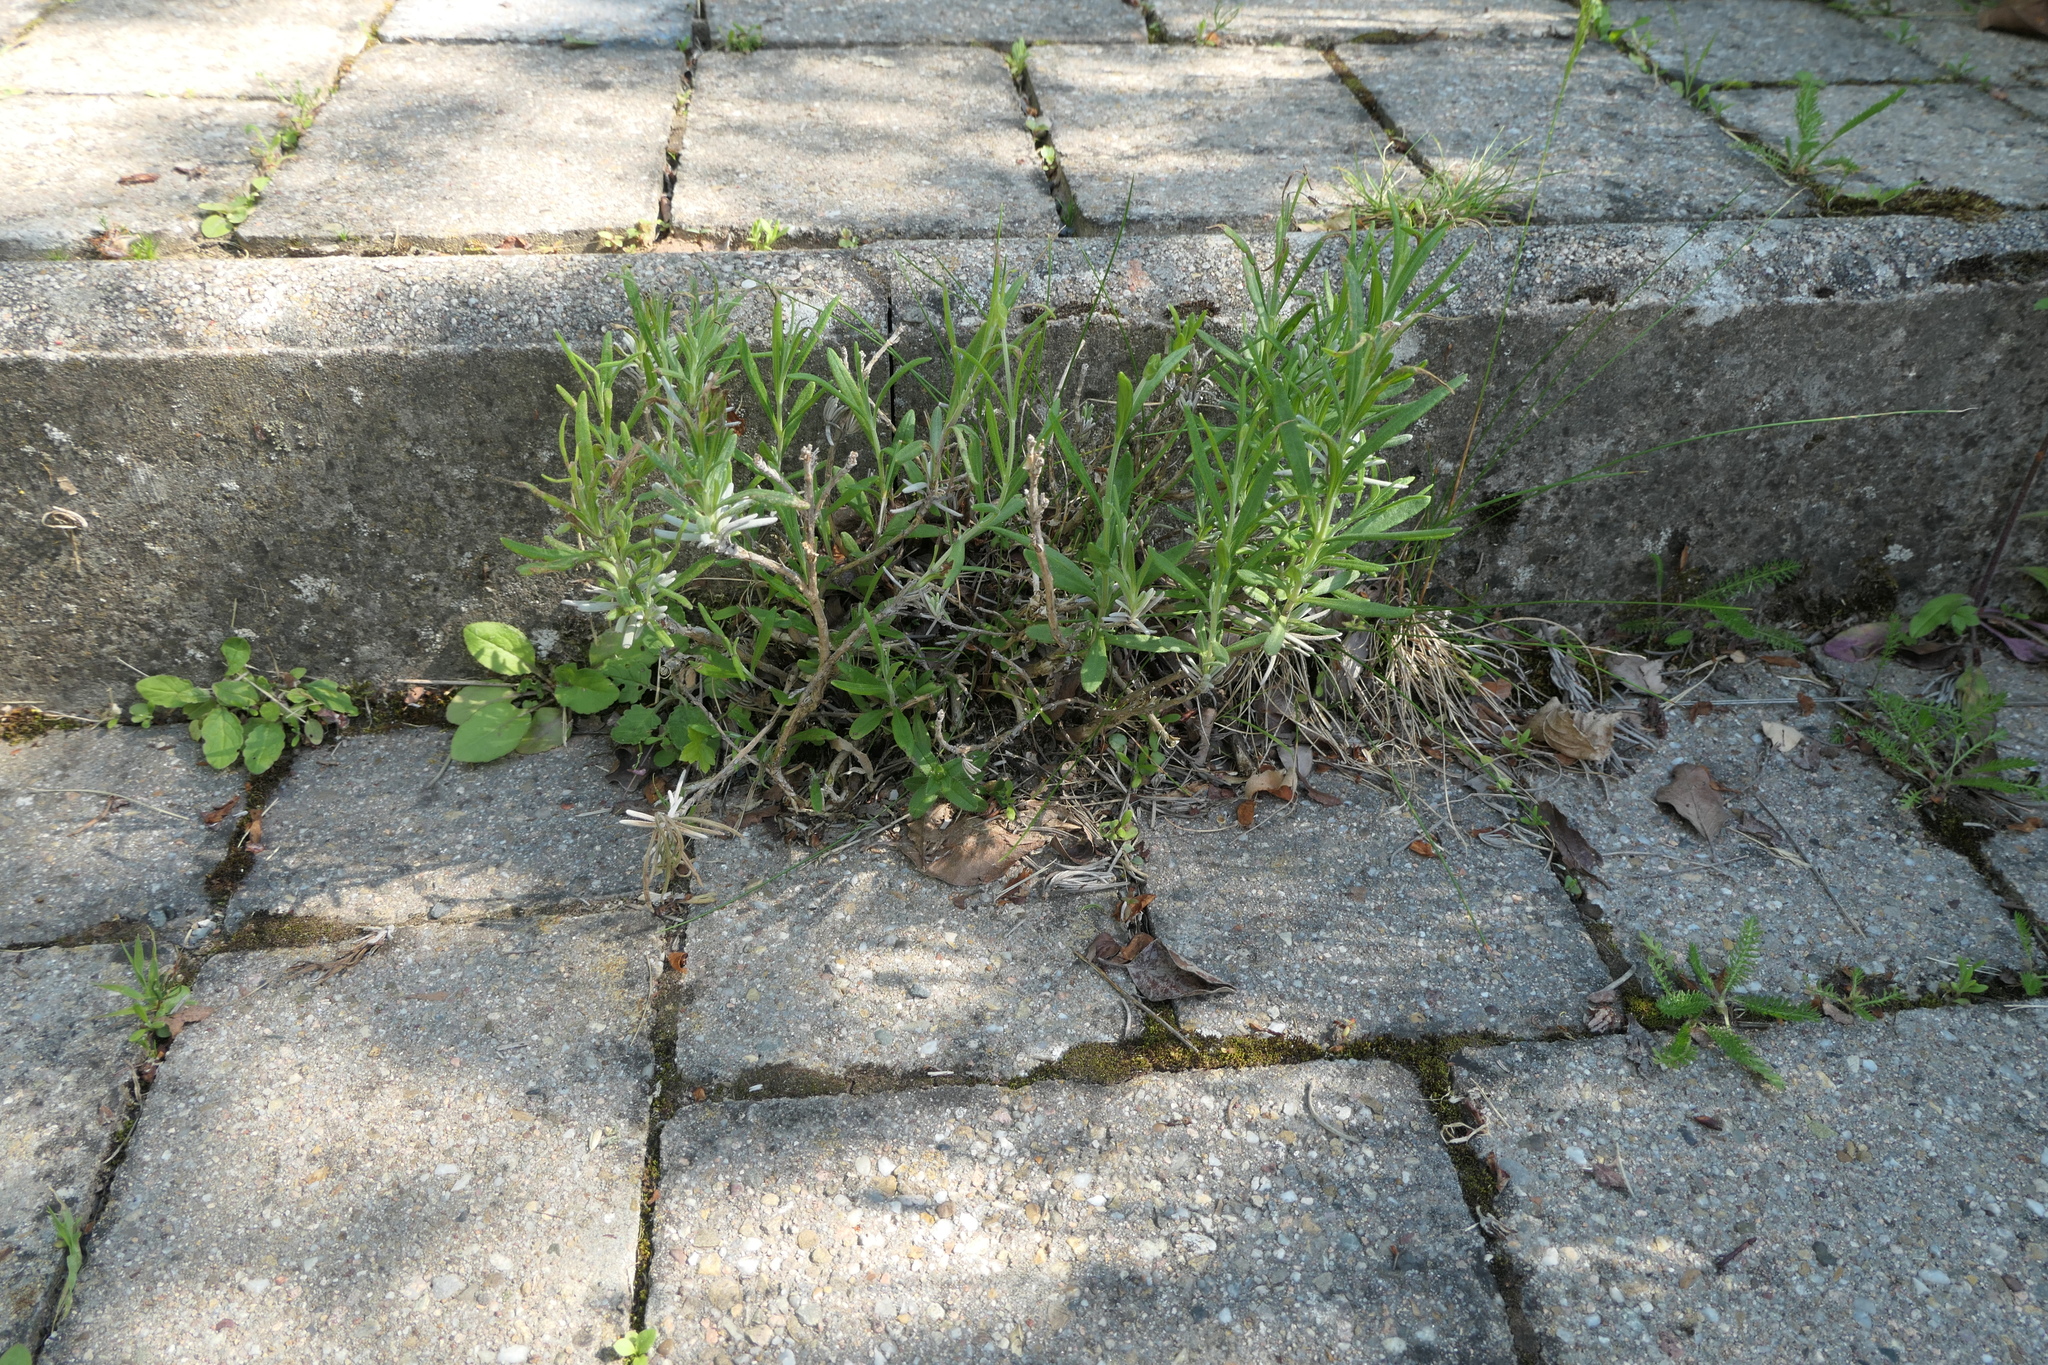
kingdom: Plantae
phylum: Tracheophyta
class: Magnoliopsida
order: Lamiales
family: Lamiaceae
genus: Lavandula
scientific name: Lavandula angustifolia
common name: Garden lavender
